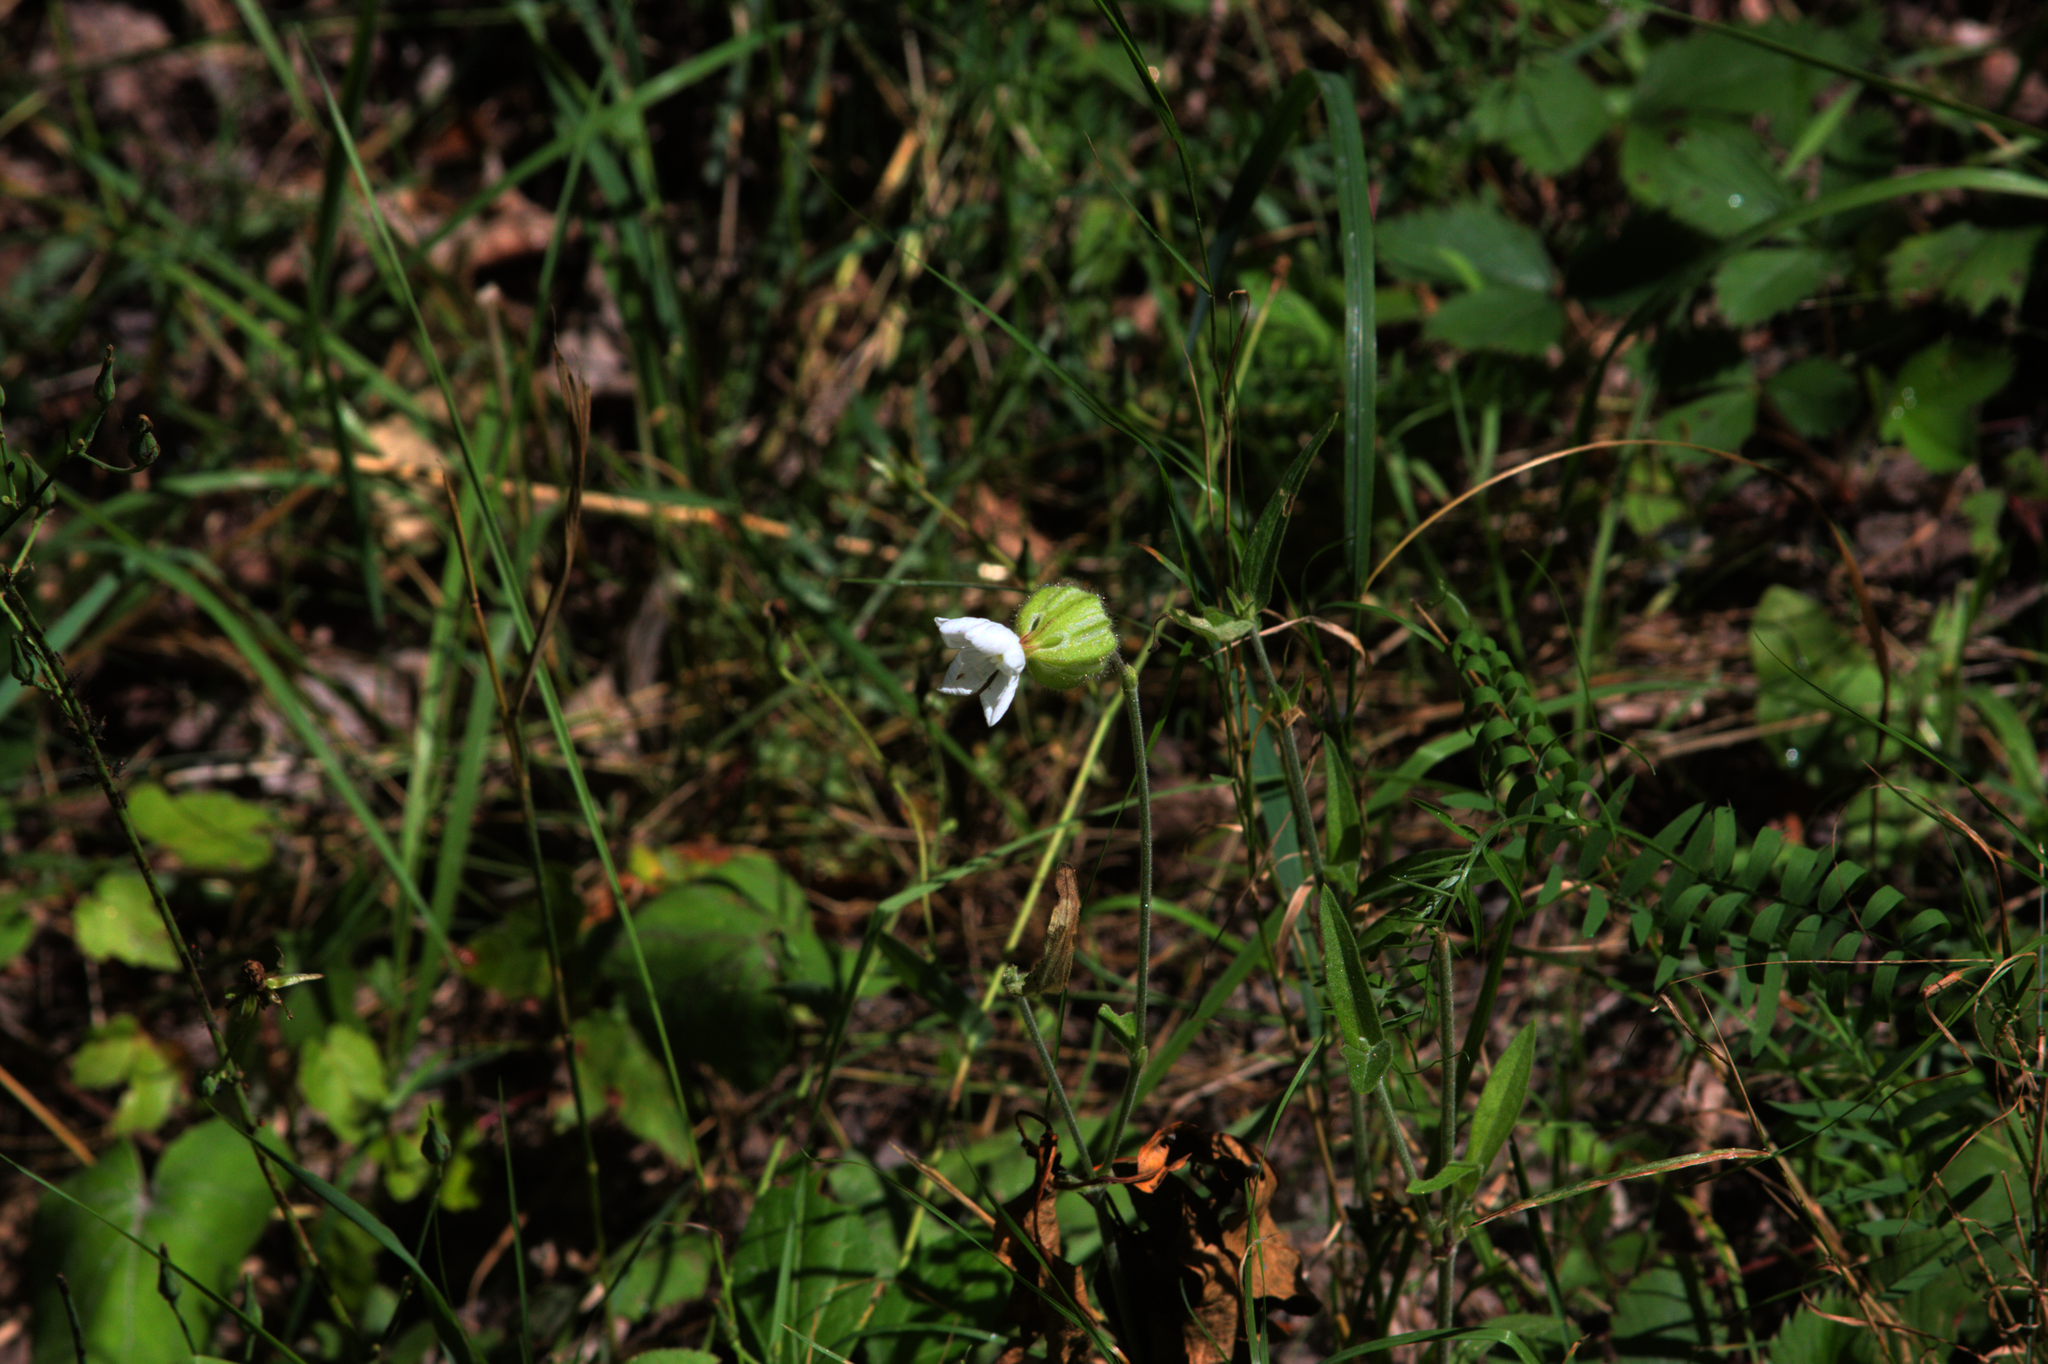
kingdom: Plantae
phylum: Tracheophyta
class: Magnoliopsida
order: Caryophyllales
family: Caryophyllaceae
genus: Silene
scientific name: Silene latifolia
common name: White campion
